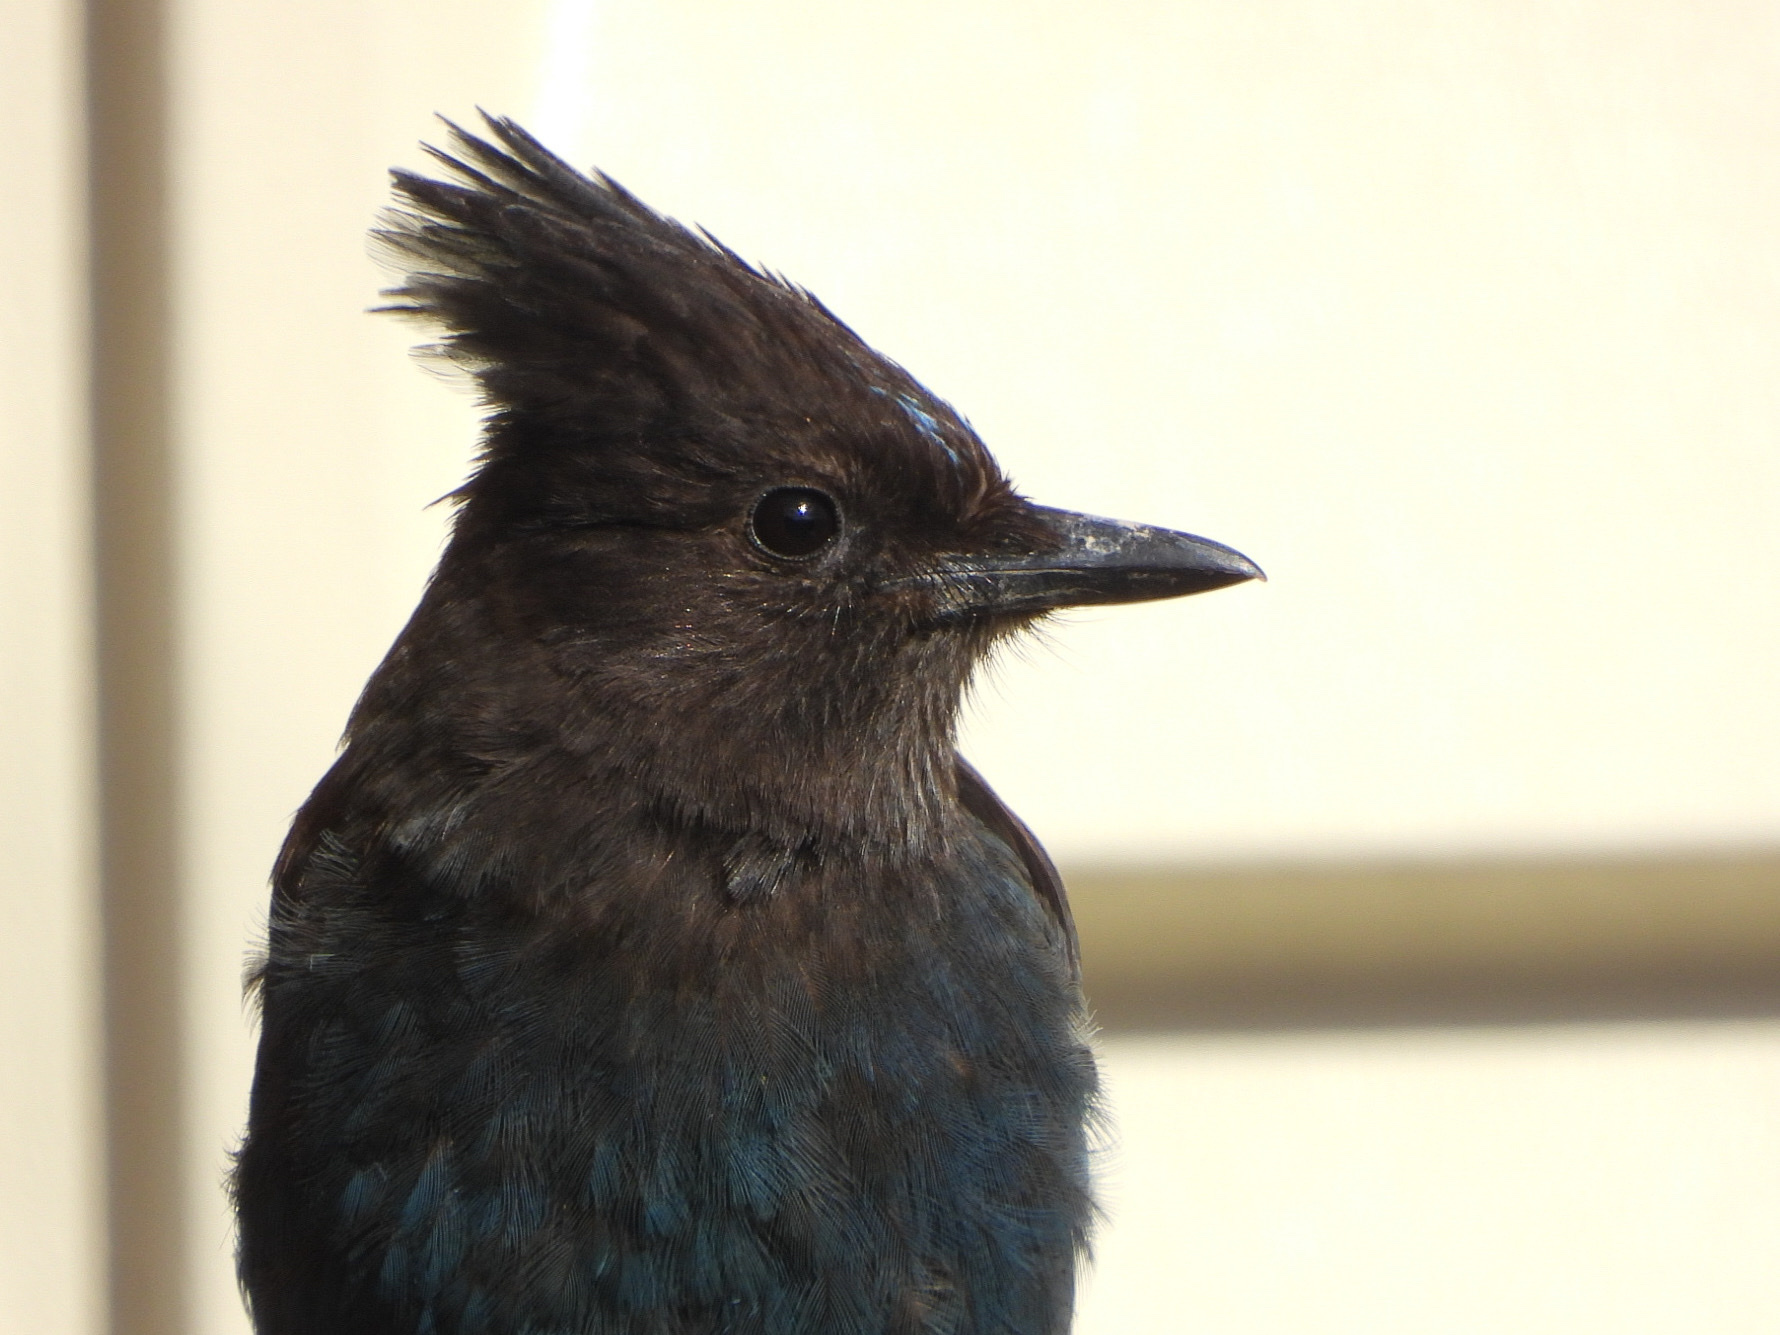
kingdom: Animalia
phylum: Chordata
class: Aves
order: Passeriformes
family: Corvidae
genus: Cyanocitta
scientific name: Cyanocitta stelleri
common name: Steller's jay
